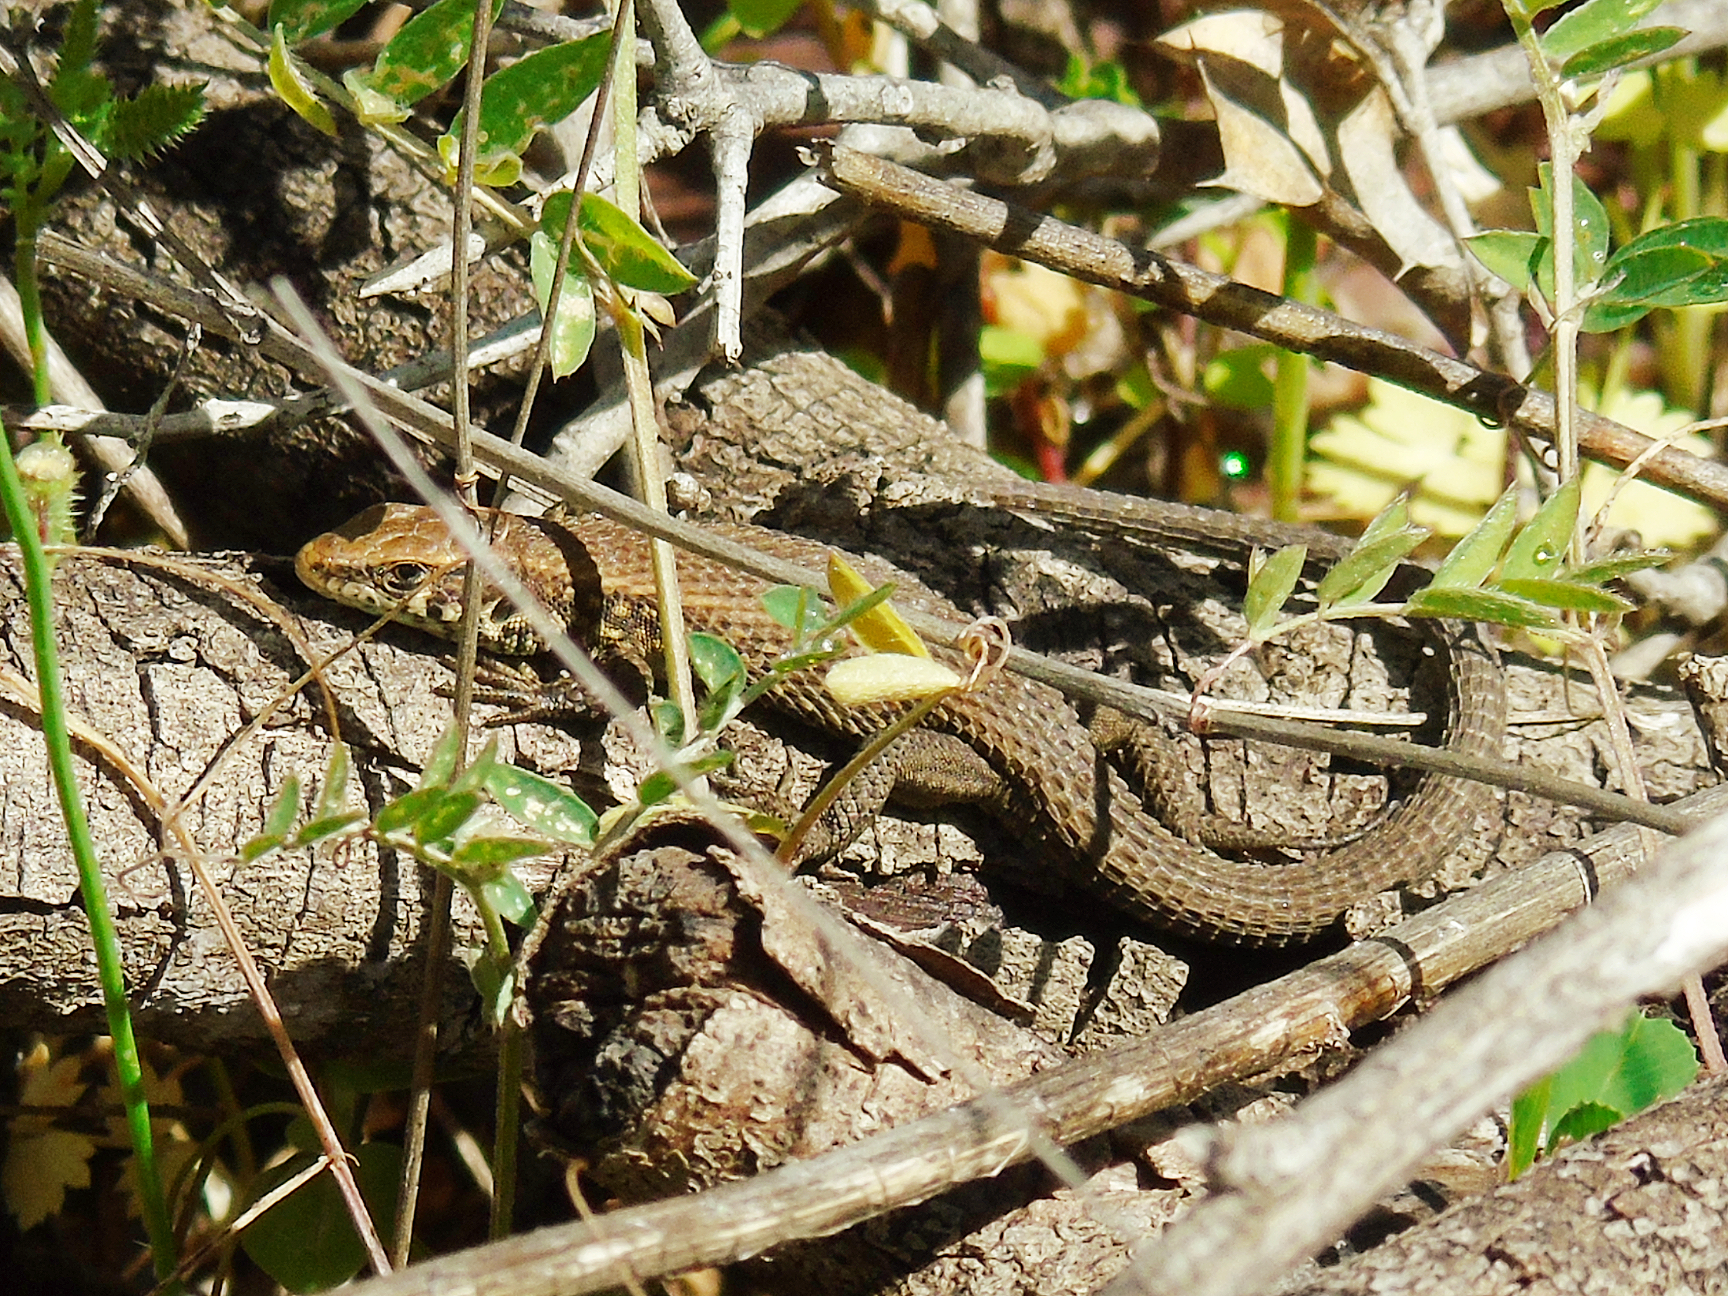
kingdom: Animalia
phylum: Chordata
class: Squamata
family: Lacertidae
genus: Algyroides
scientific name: Algyroides moreoticus
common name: Greek algyroides
